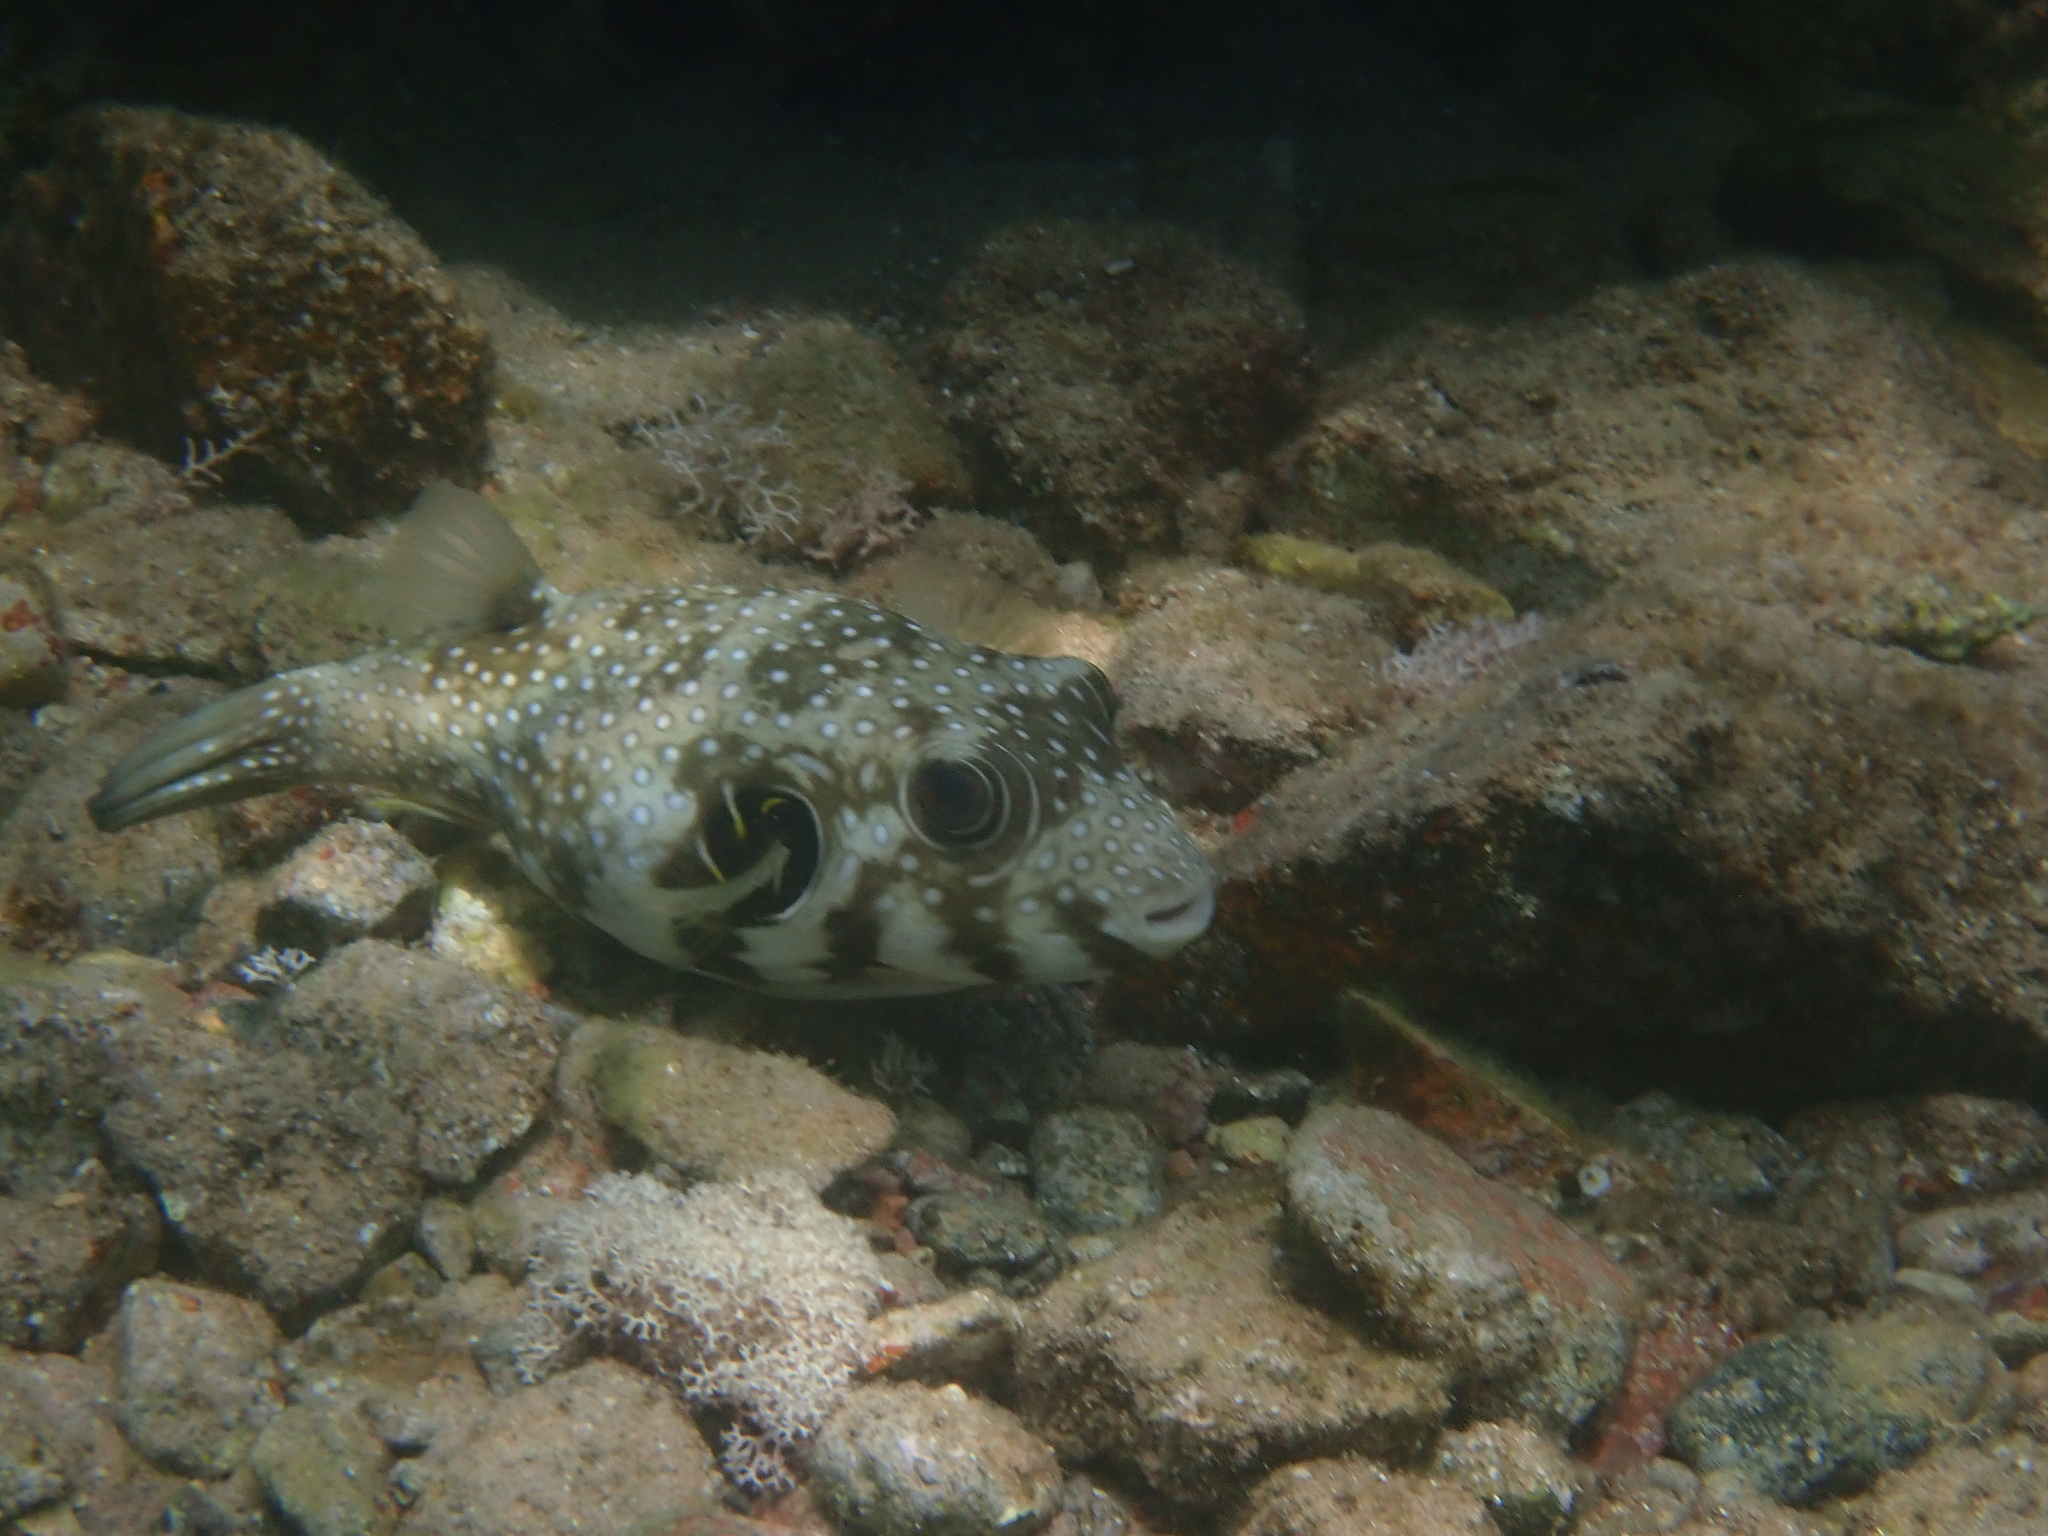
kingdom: Animalia
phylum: Chordata
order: Tetraodontiformes
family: Tetraodontidae
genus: Arothron
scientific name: Arothron hispidus
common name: Stripebelly puffer
